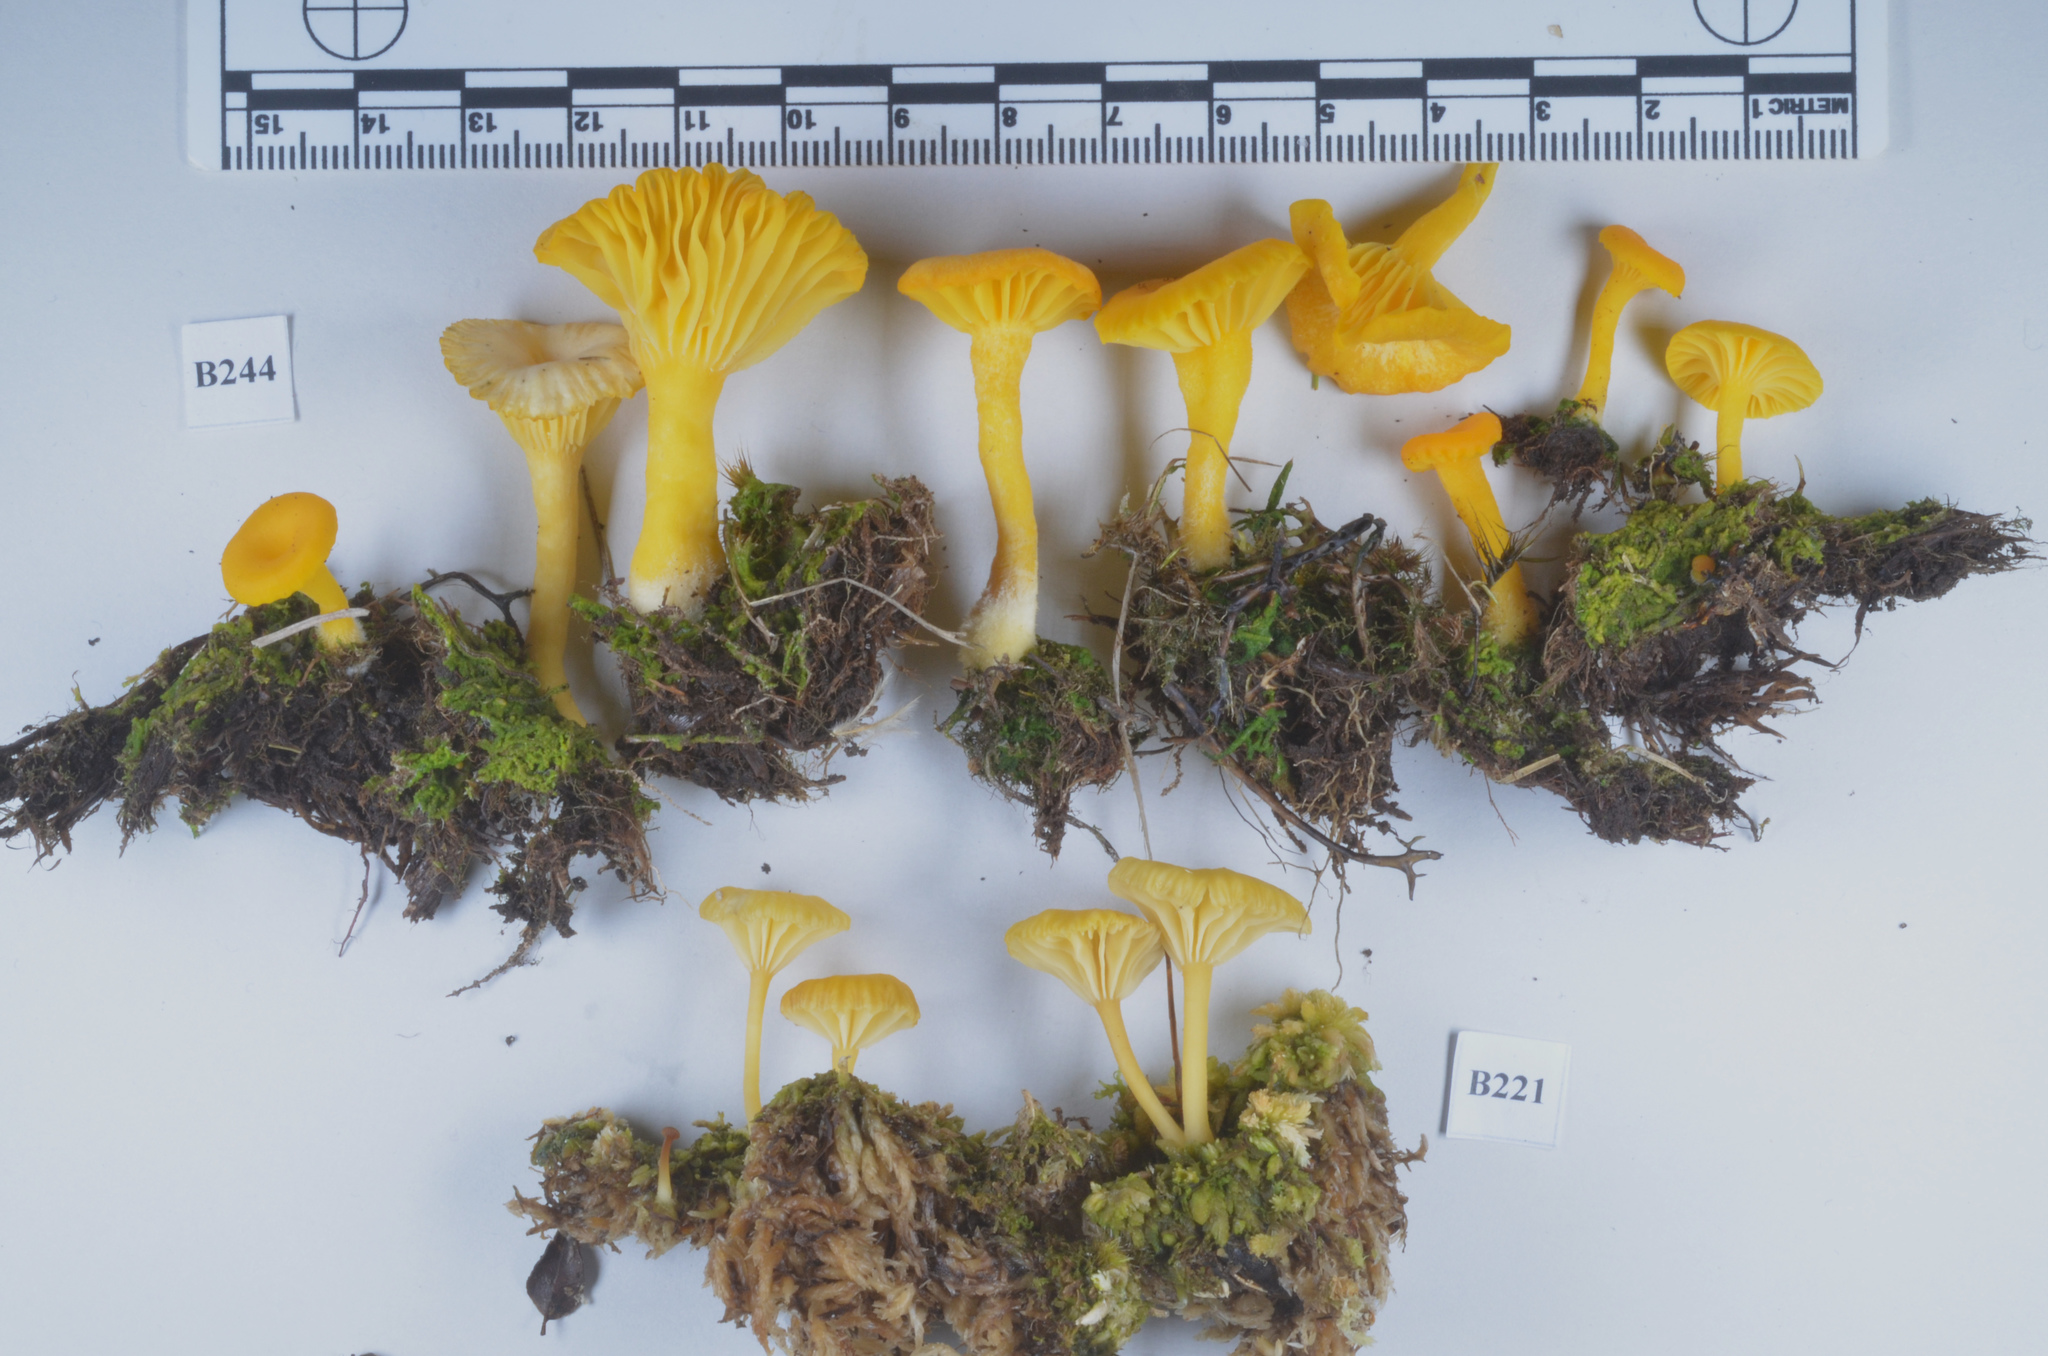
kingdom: Fungi
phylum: Basidiomycota
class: Agaricomycetes
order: Agaricales
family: Hygrophoraceae
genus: Lichenomphalia
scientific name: Lichenomphalia chromacea
